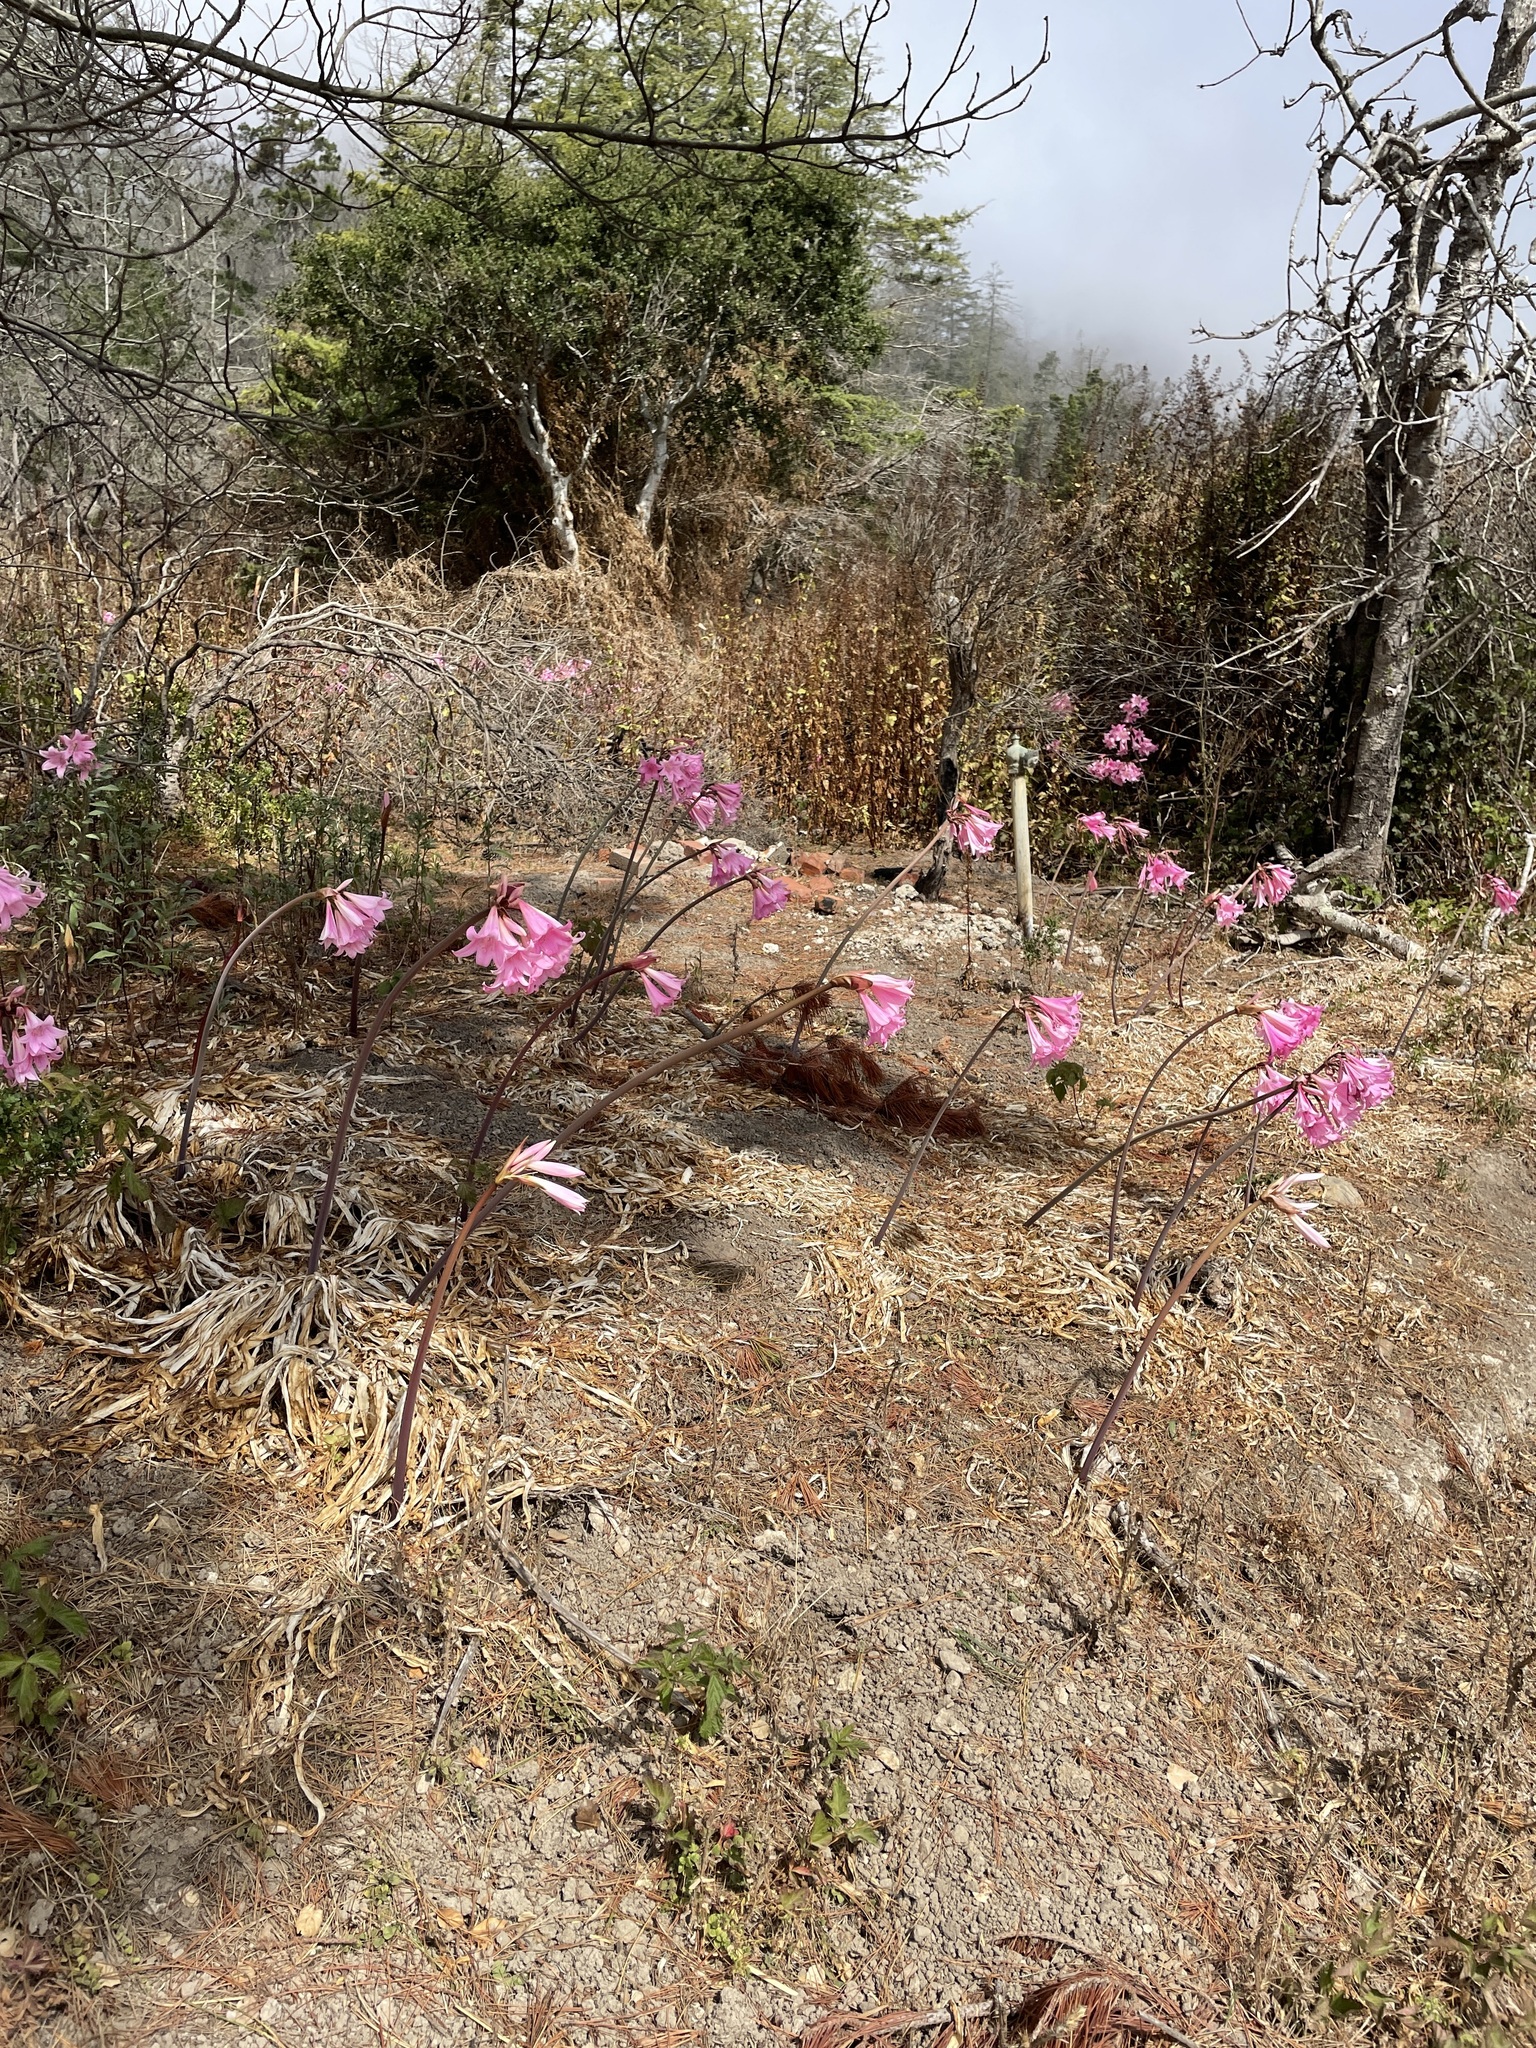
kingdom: Plantae
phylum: Tracheophyta
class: Liliopsida
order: Asparagales
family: Amaryllidaceae
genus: Amaryllis
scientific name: Amaryllis belladonna
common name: Jersey lily
